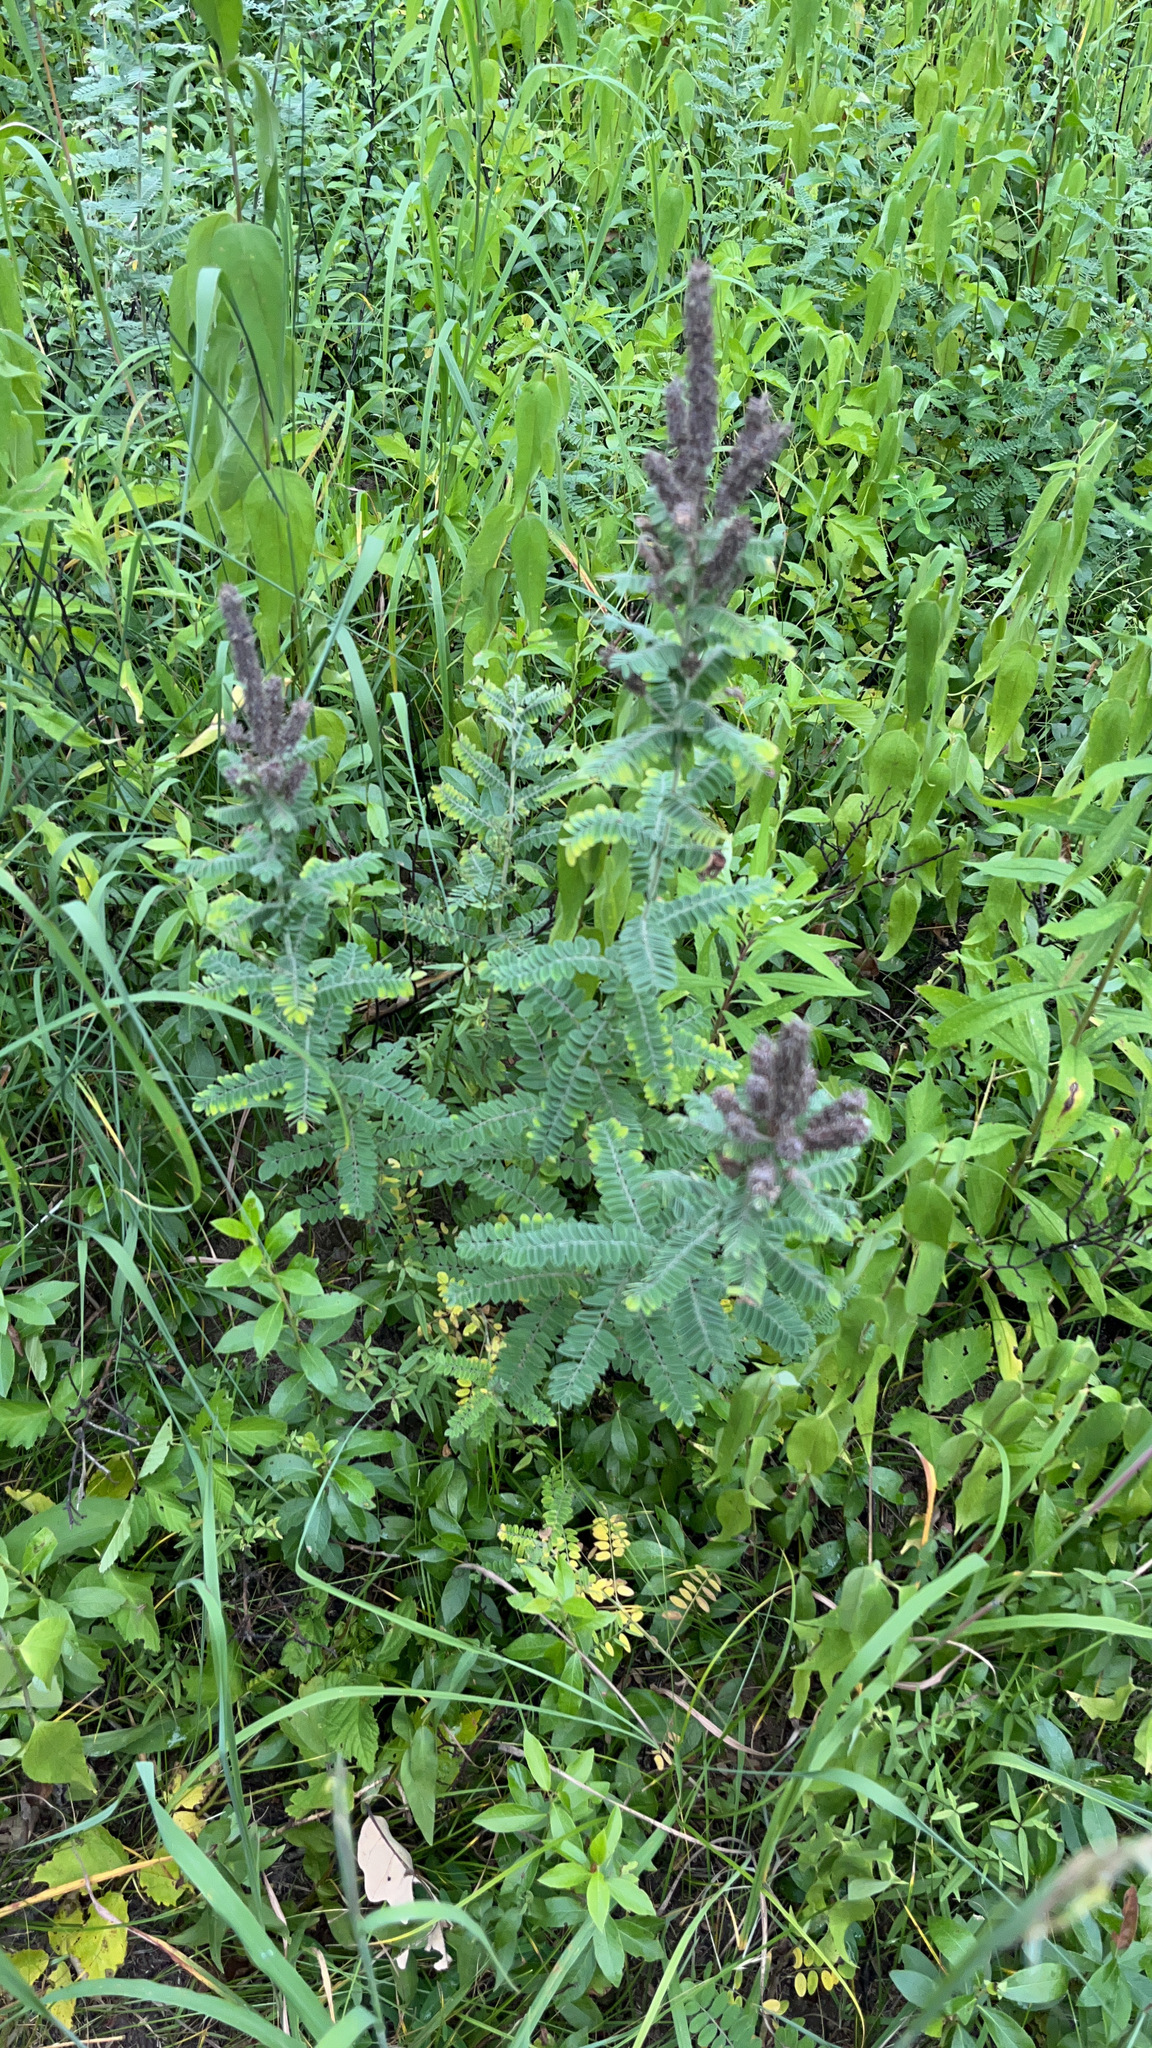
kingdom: Plantae
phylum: Tracheophyta
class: Magnoliopsida
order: Fabales
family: Fabaceae
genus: Amorpha
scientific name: Amorpha canescens
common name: Leadplant
